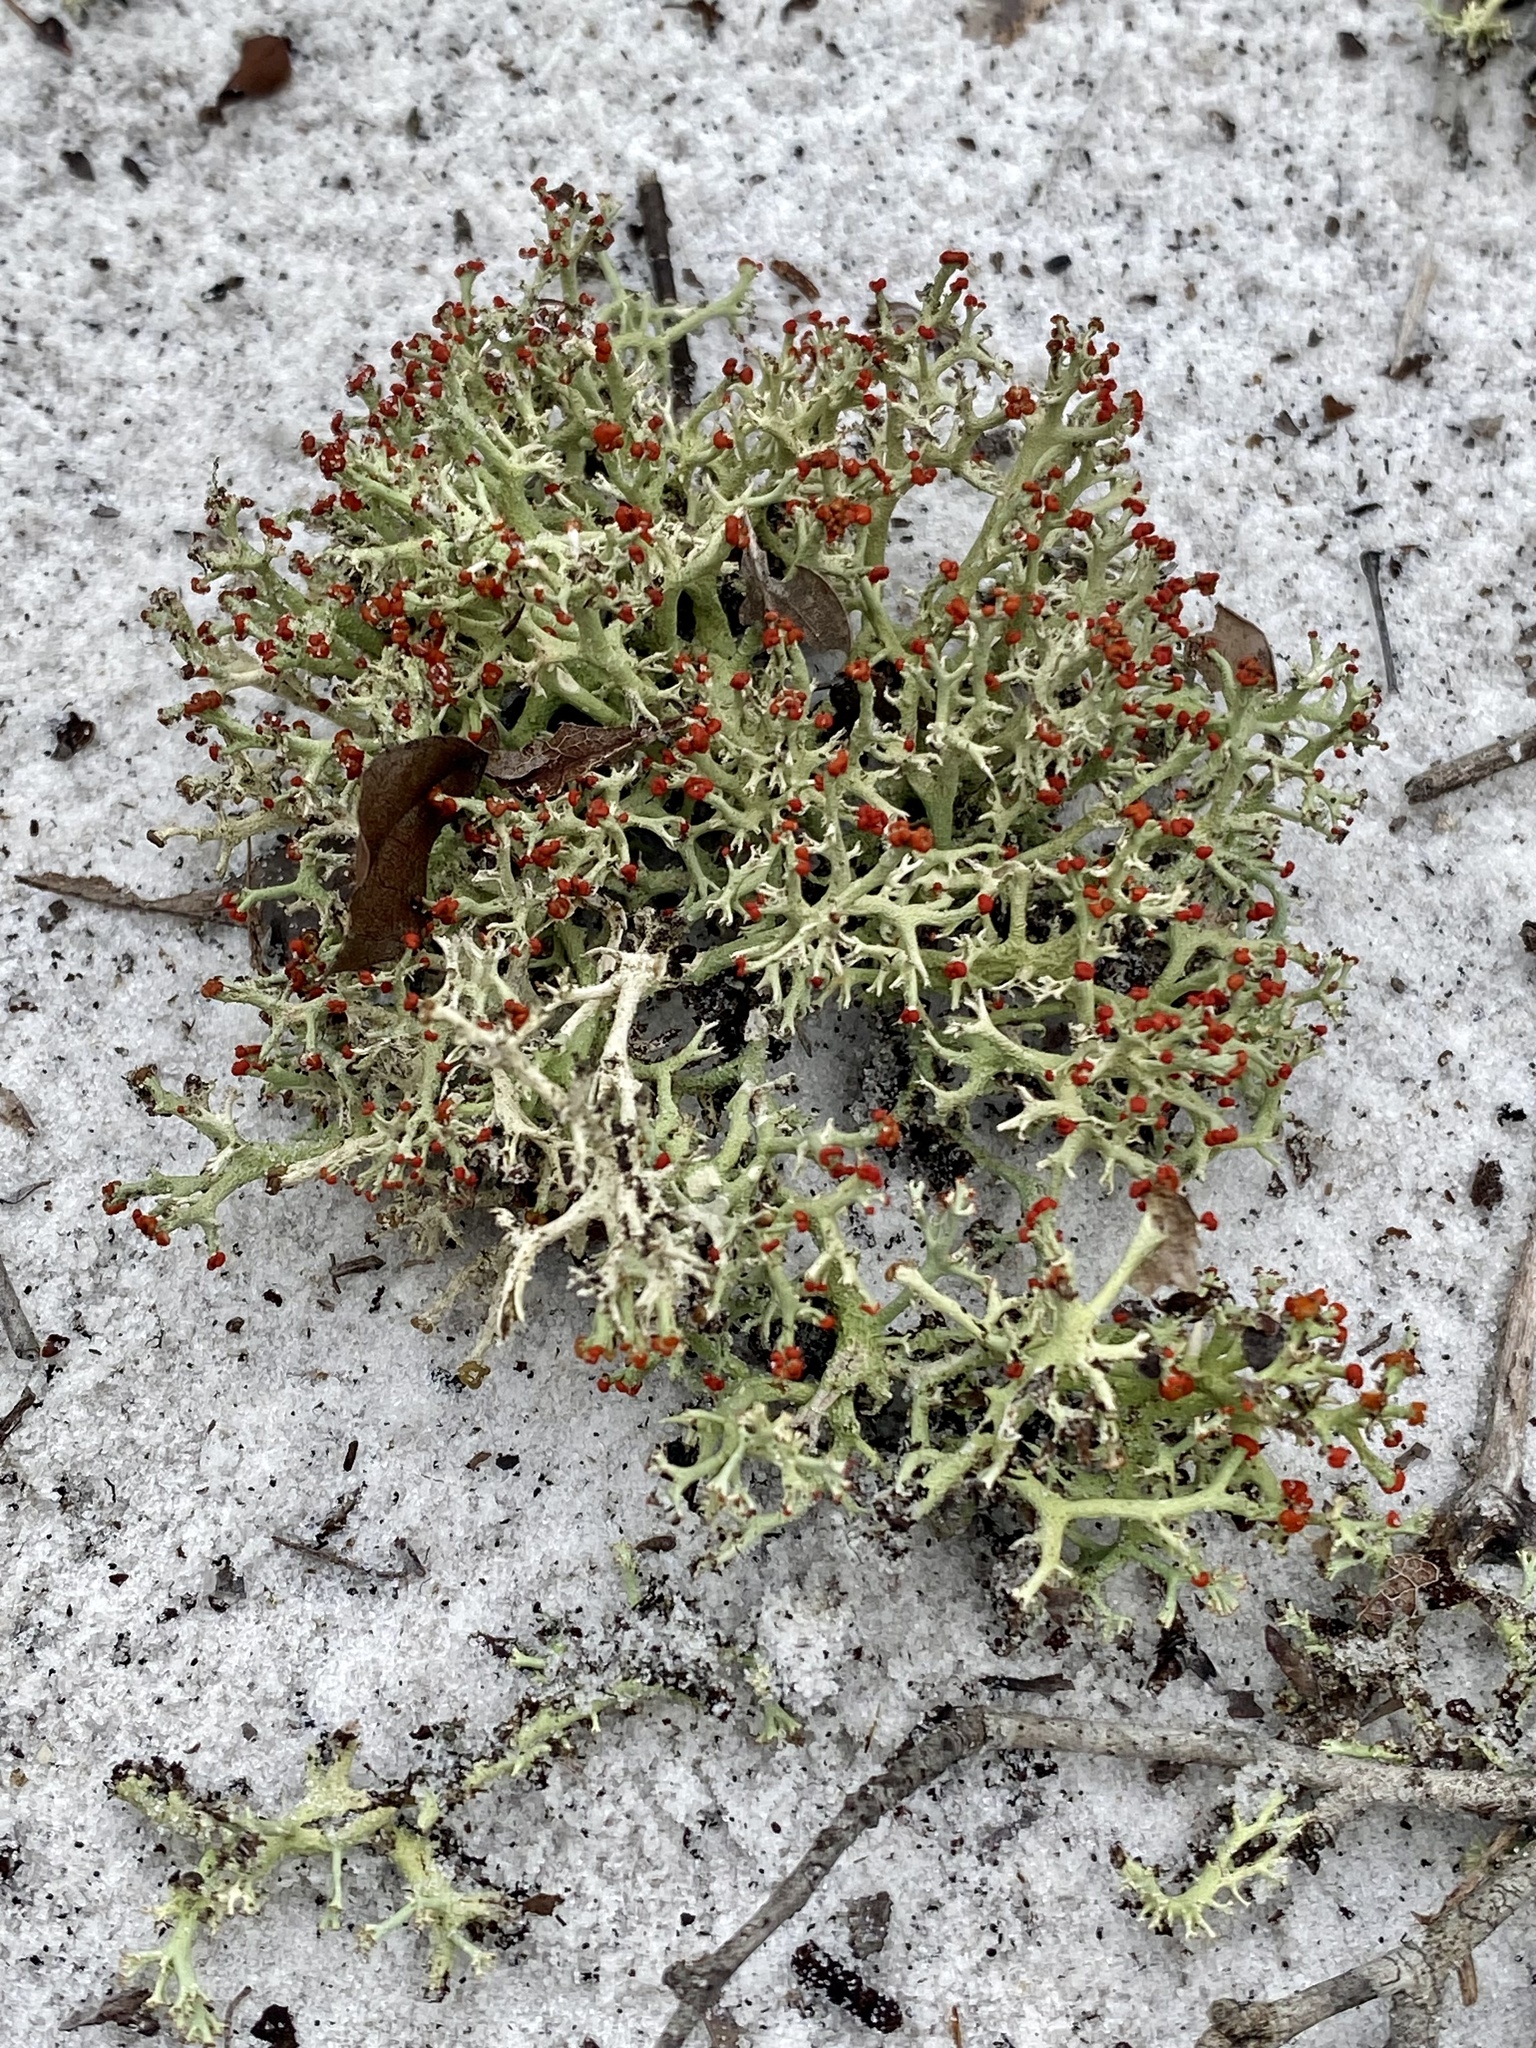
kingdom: Fungi
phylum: Ascomycota
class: Lecanoromycetes
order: Lecanorales
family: Cladoniaceae
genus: Cladonia
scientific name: Cladonia leporina
